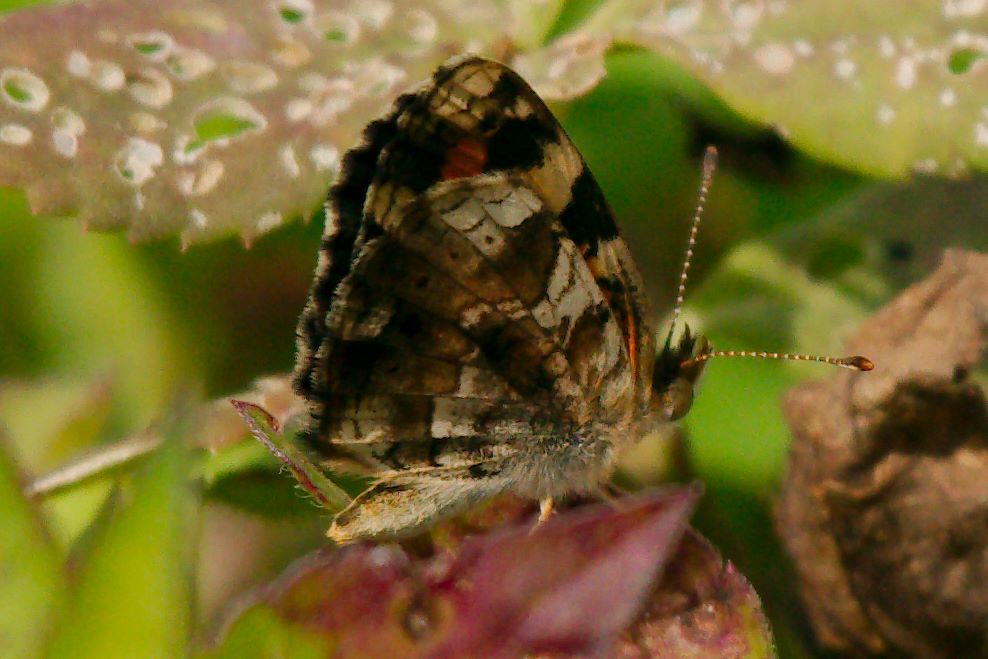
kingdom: Animalia
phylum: Arthropoda
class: Insecta
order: Lepidoptera
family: Nymphalidae
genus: Phyciodes
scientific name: Phyciodes phaon
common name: Phaon crescent
